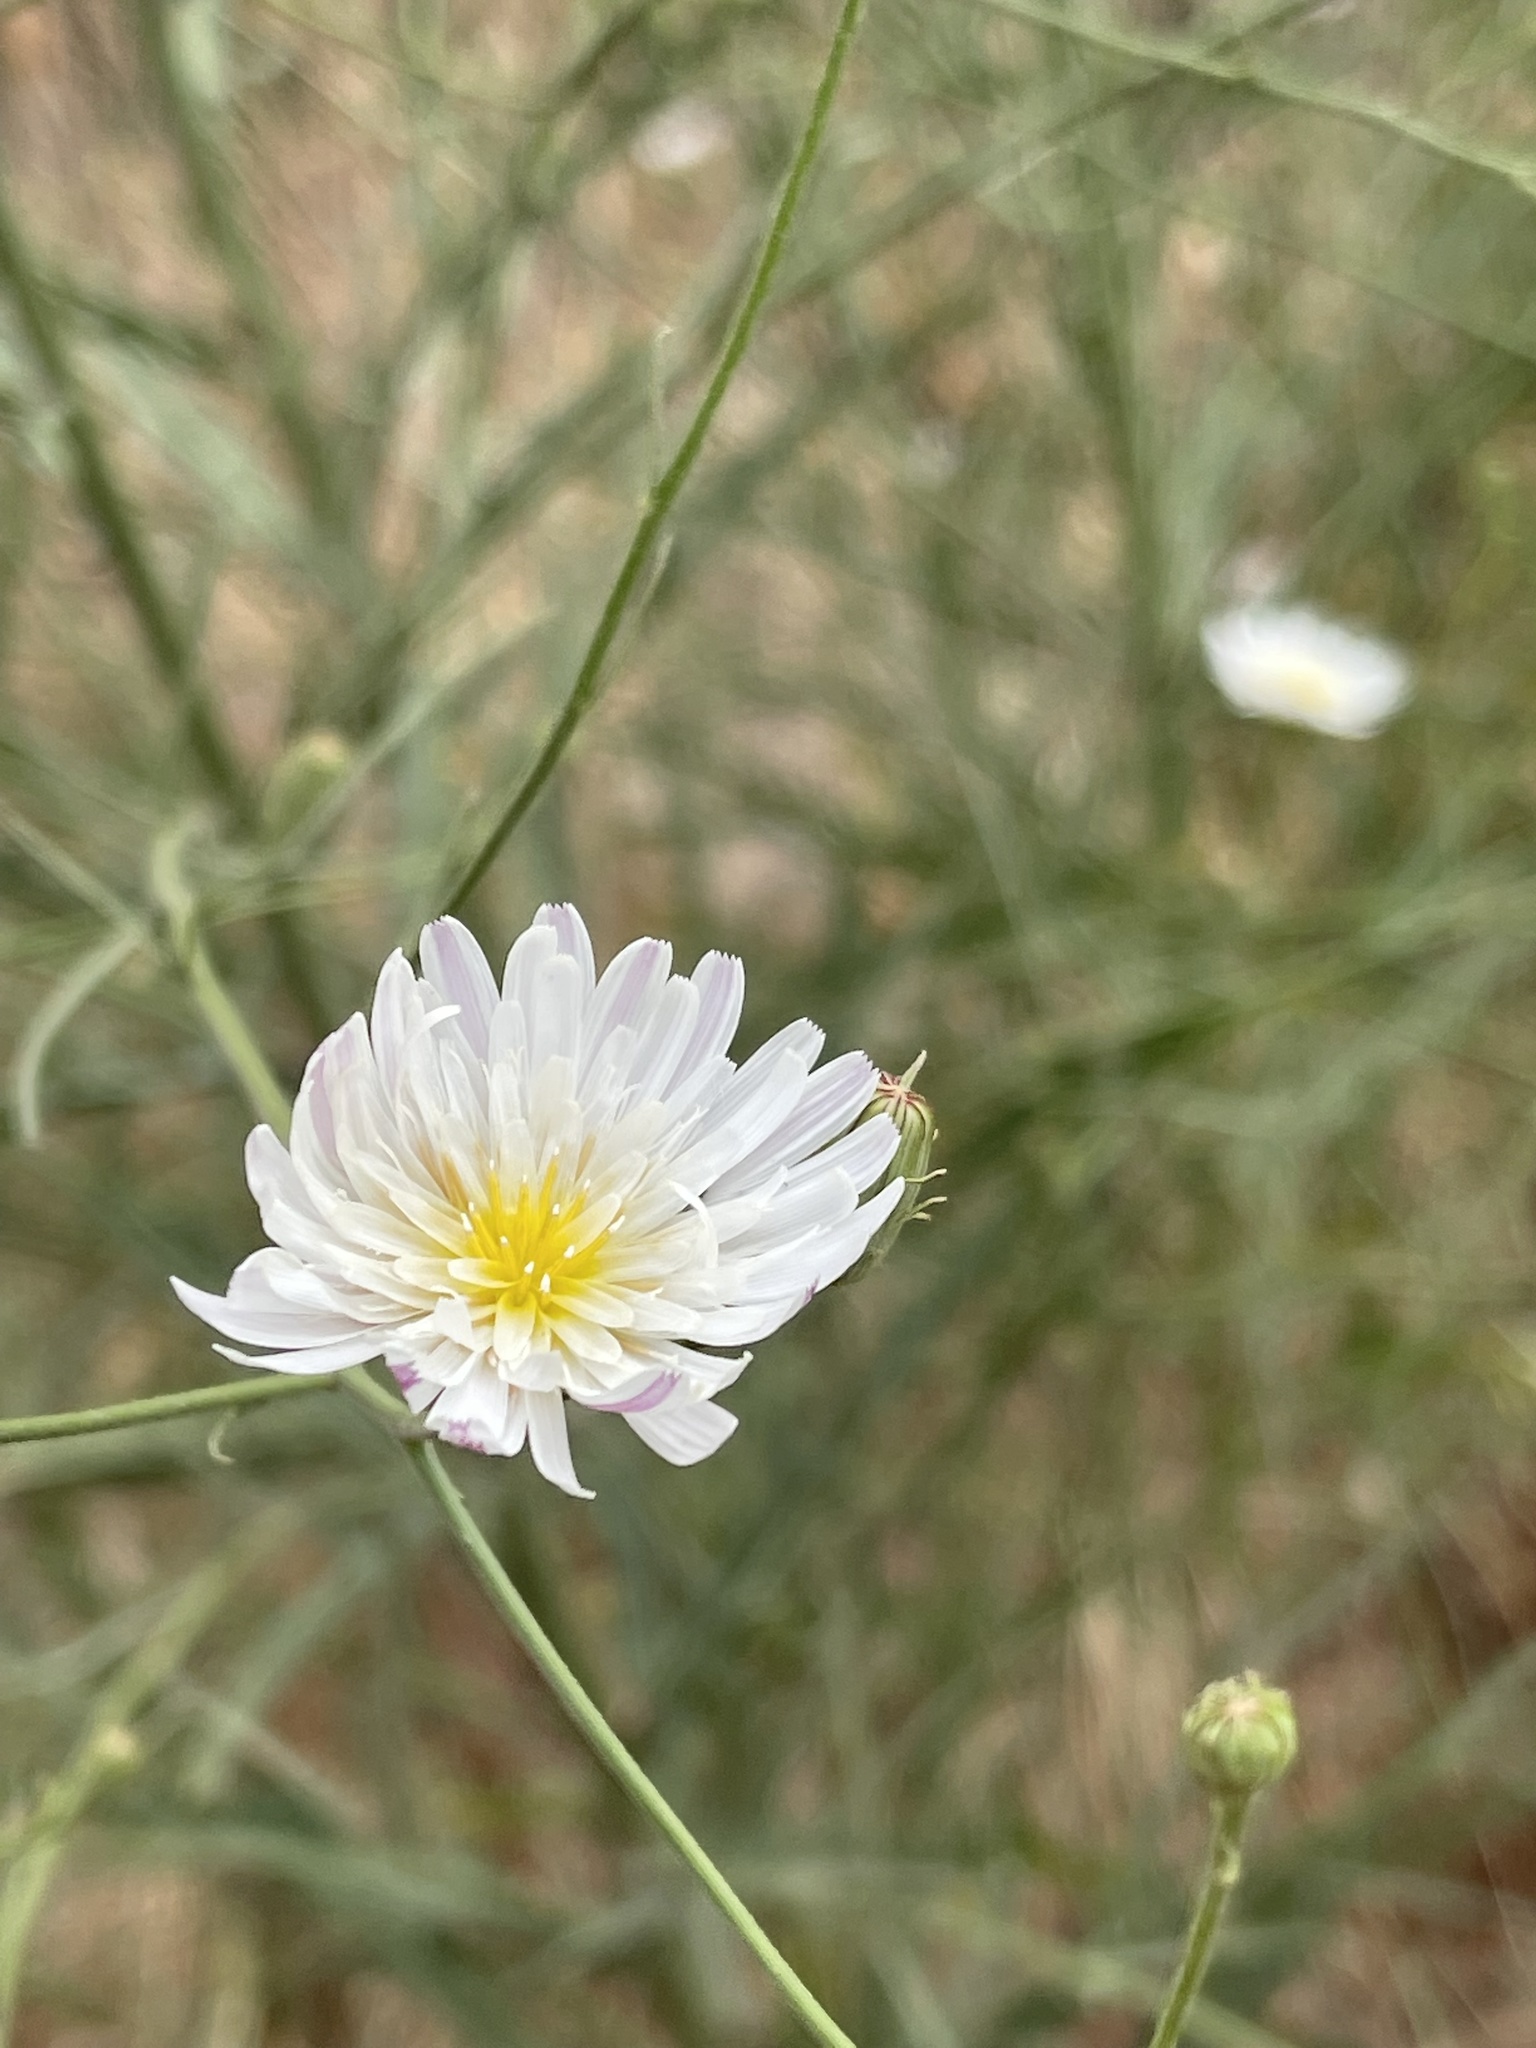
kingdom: Plantae
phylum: Tracheophyta
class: Magnoliopsida
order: Asterales
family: Asteraceae
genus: Malacothrix
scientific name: Malacothrix saxatilis
